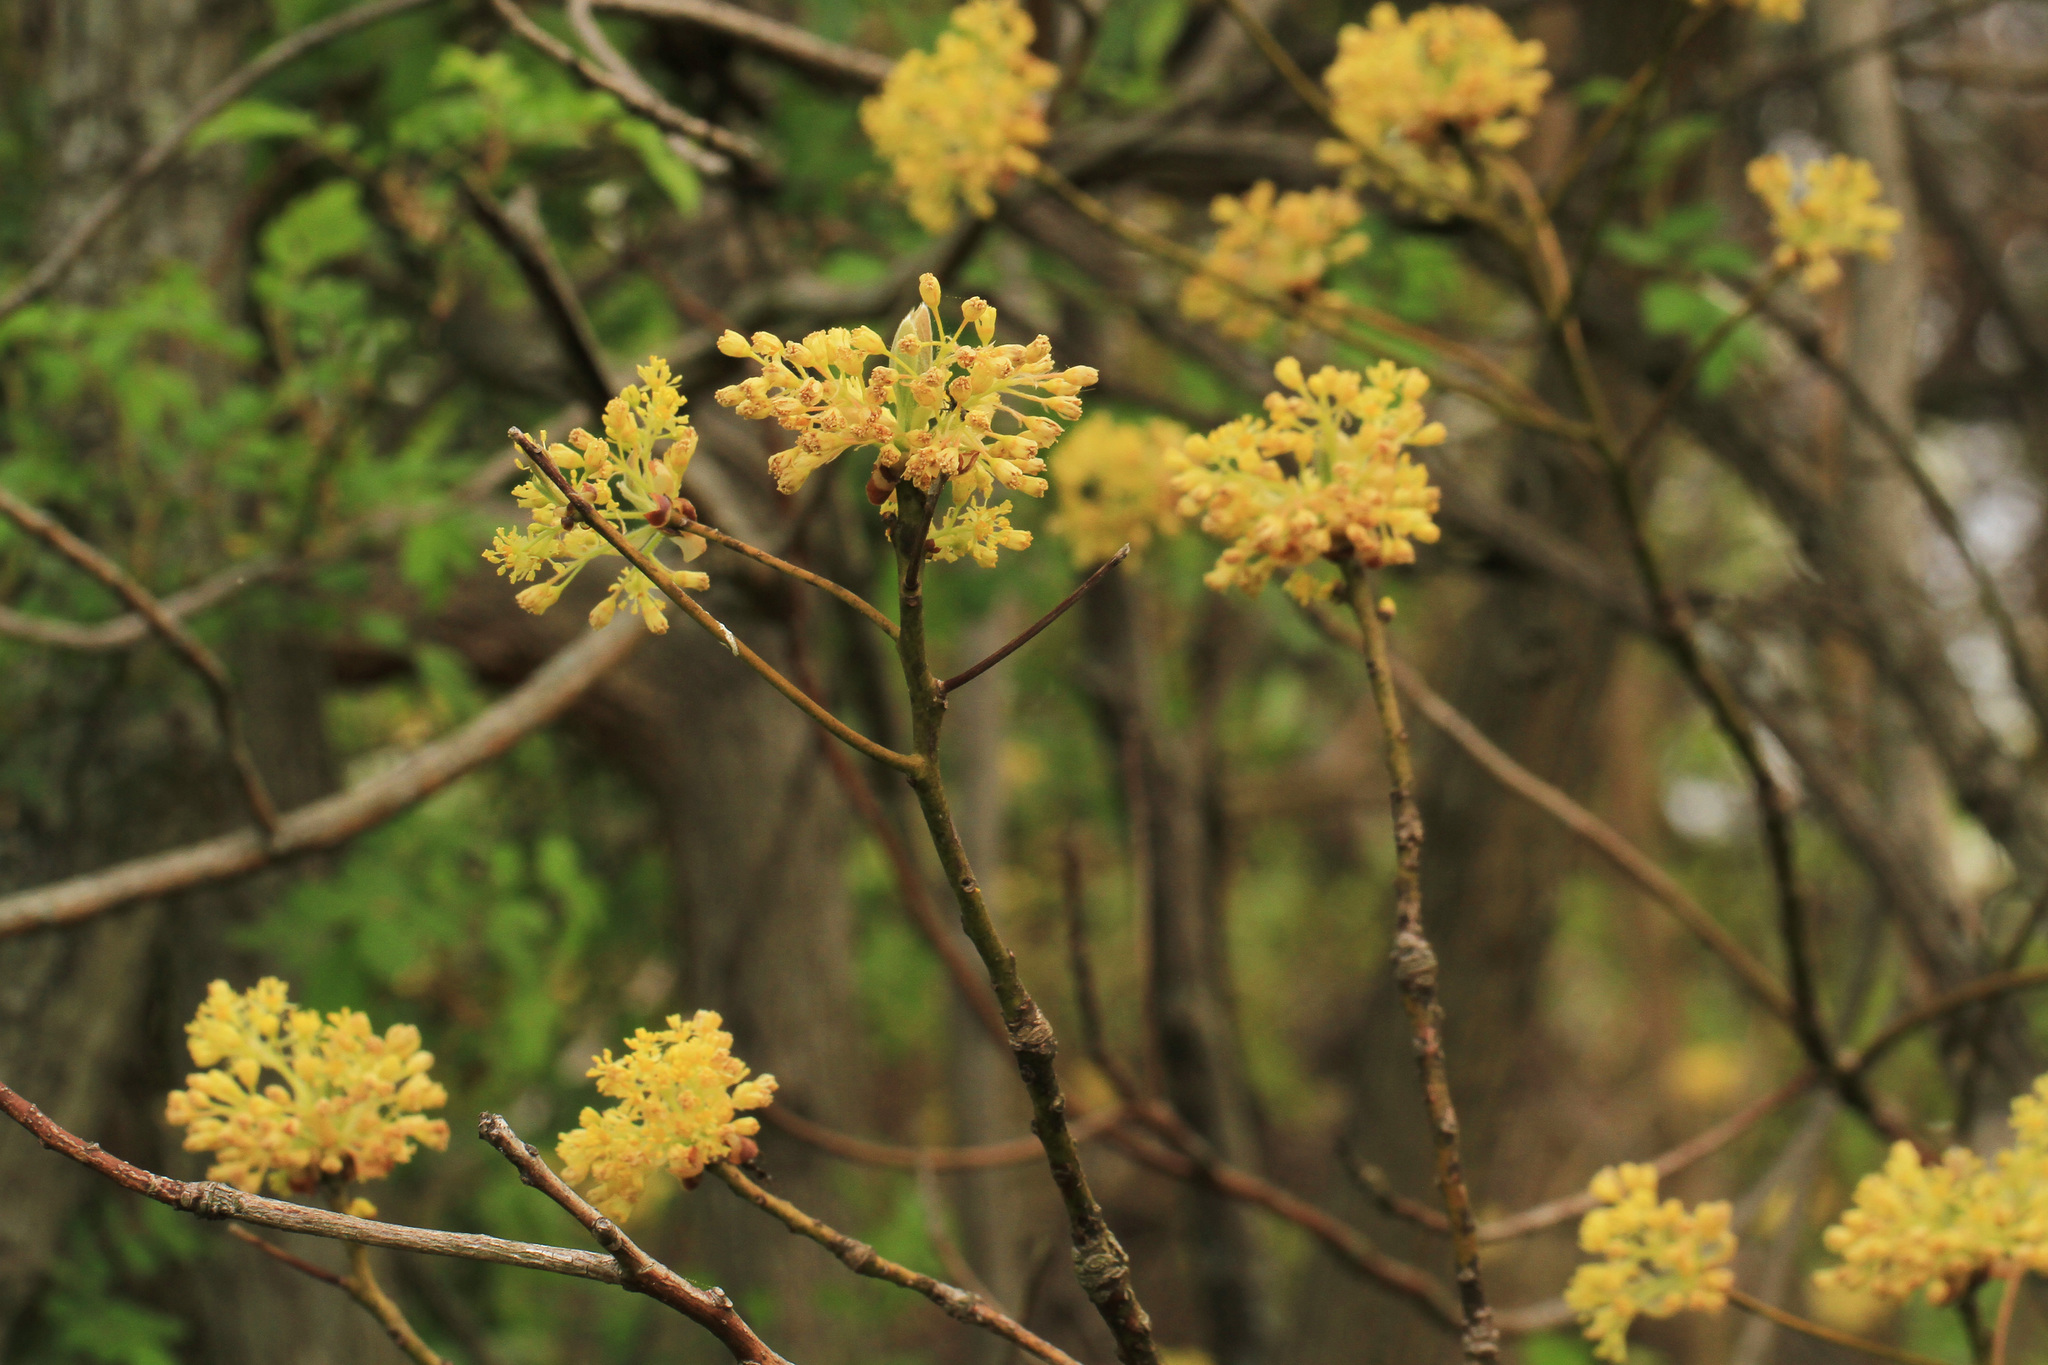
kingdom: Plantae
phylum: Tracheophyta
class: Magnoliopsida
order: Laurales
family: Lauraceae
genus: Sassafras
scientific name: Sassafras albidum
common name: Sassafras
